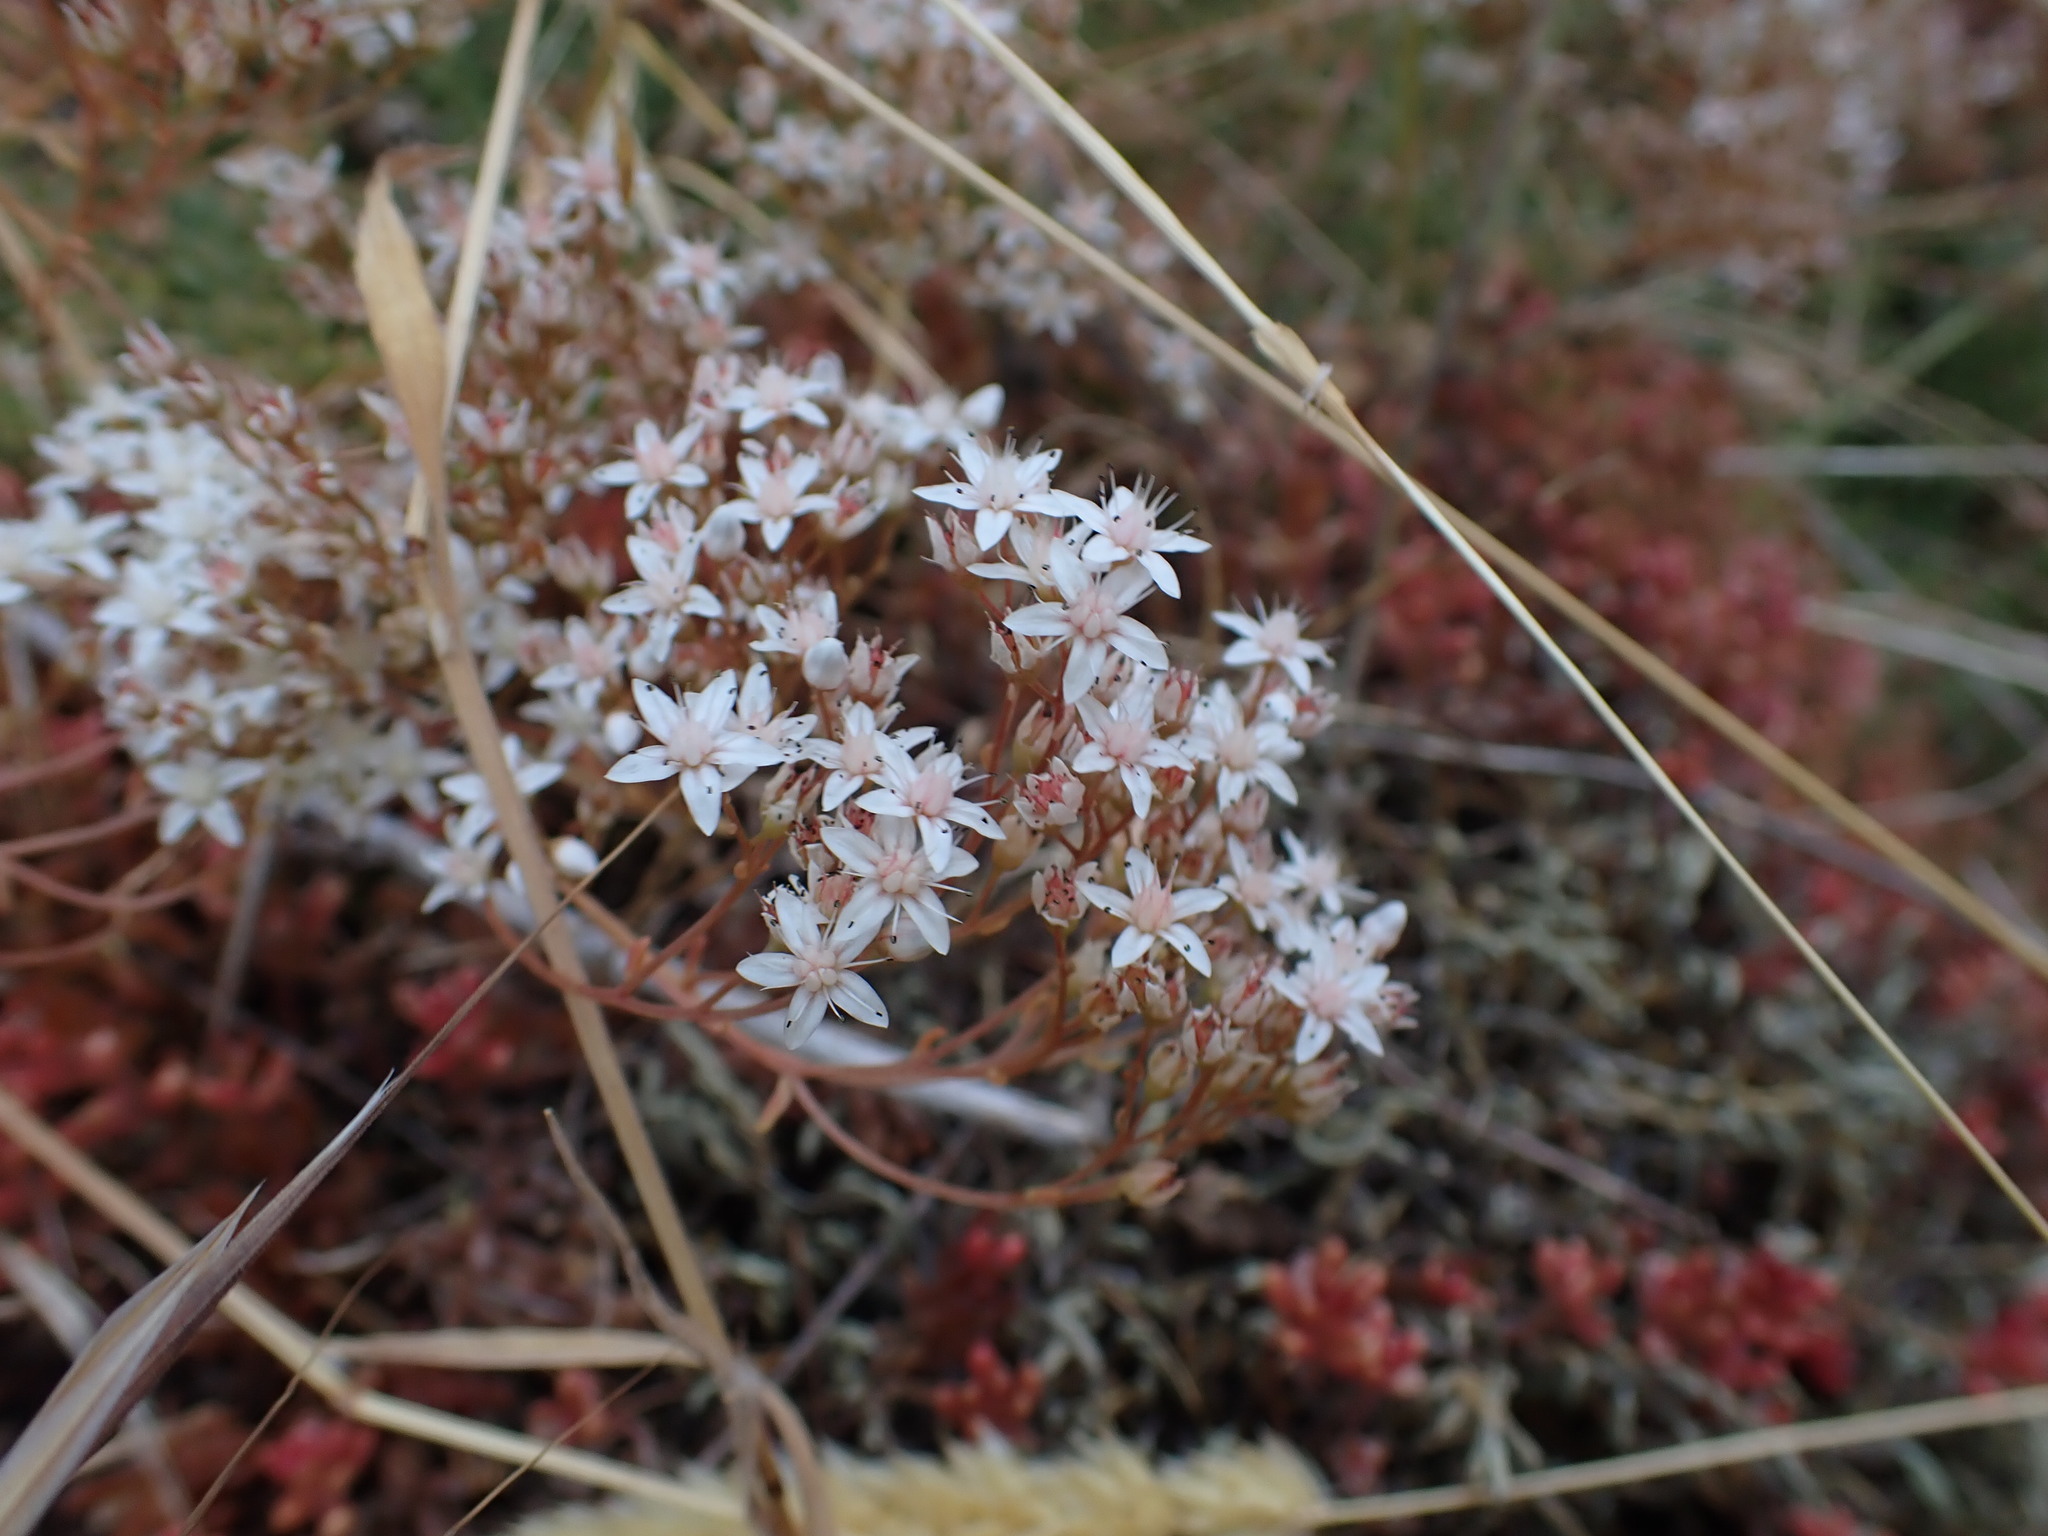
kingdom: Plantae
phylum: Tracheophyta
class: Magnoliopsida
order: Saxifragales
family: Crassulaceae
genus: Sedum
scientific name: Sedum album
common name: White stonecrop
